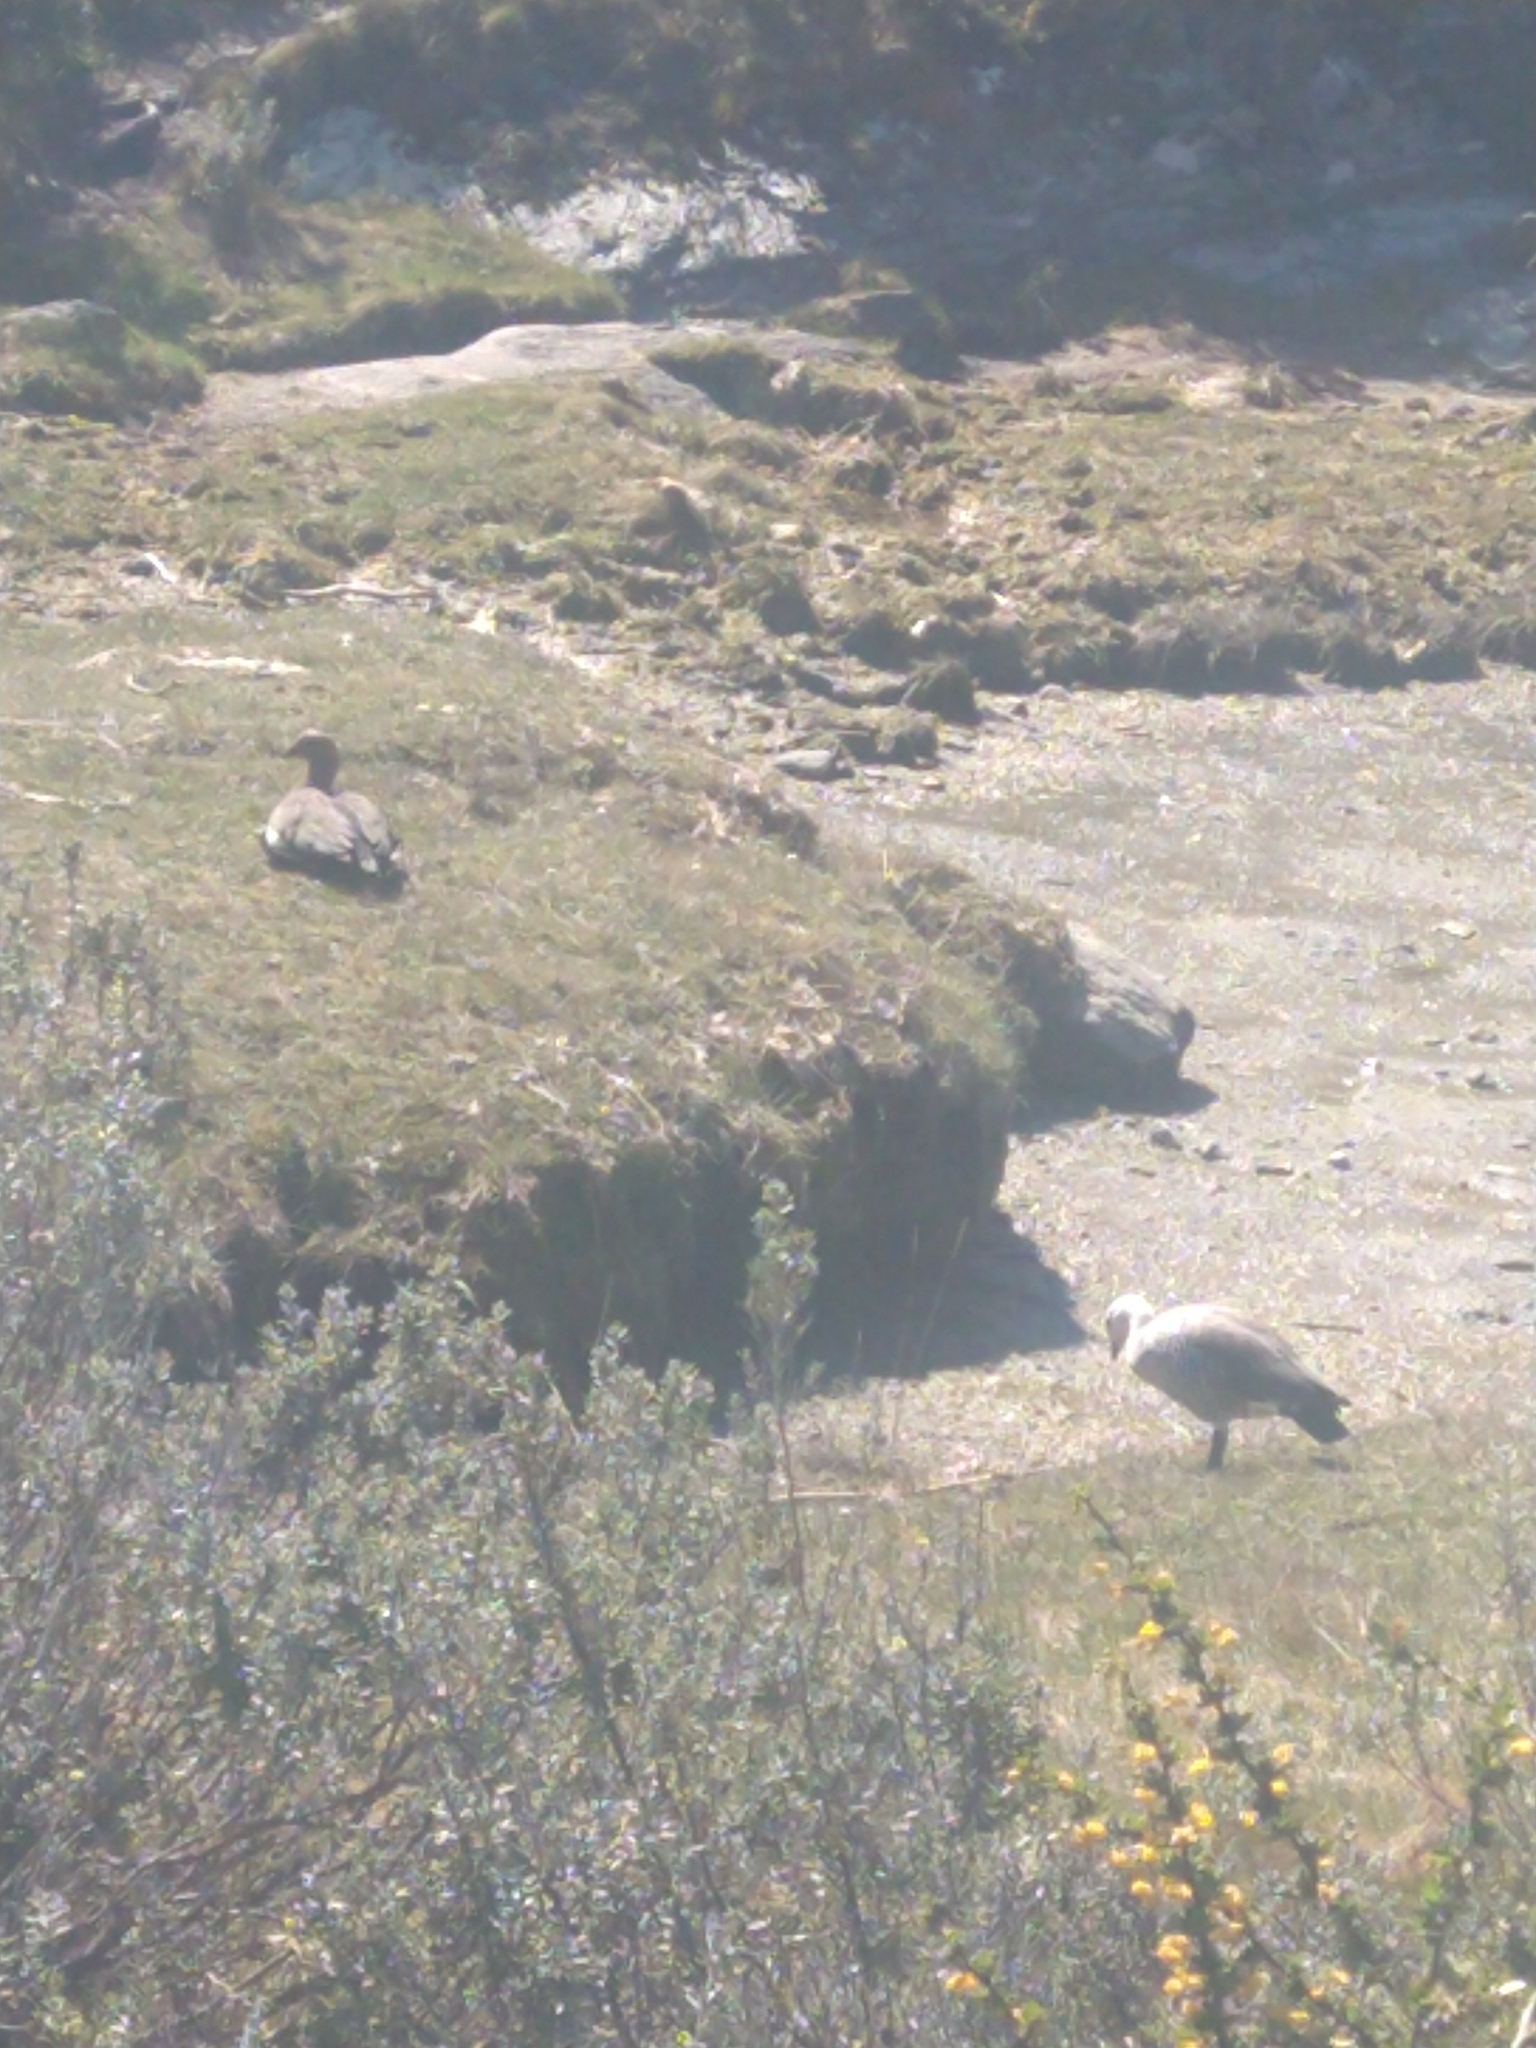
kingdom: Animalia
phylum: Chordata
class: Aves
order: Anseriformes
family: Anatidae
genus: Chloephaga
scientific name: Chloephaga picta
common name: Upland goose
